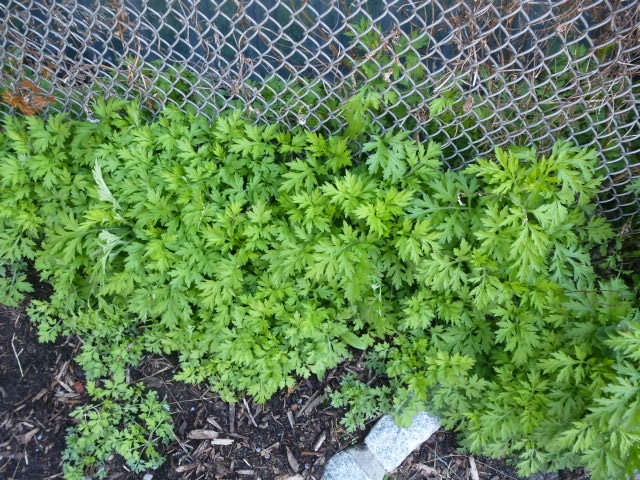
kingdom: Plantae
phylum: Tracheophyta
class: Magnoliopsida
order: Asterales
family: Asteraceae
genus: Artemisia
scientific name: Artemisia vulgaris
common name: Mugwort
